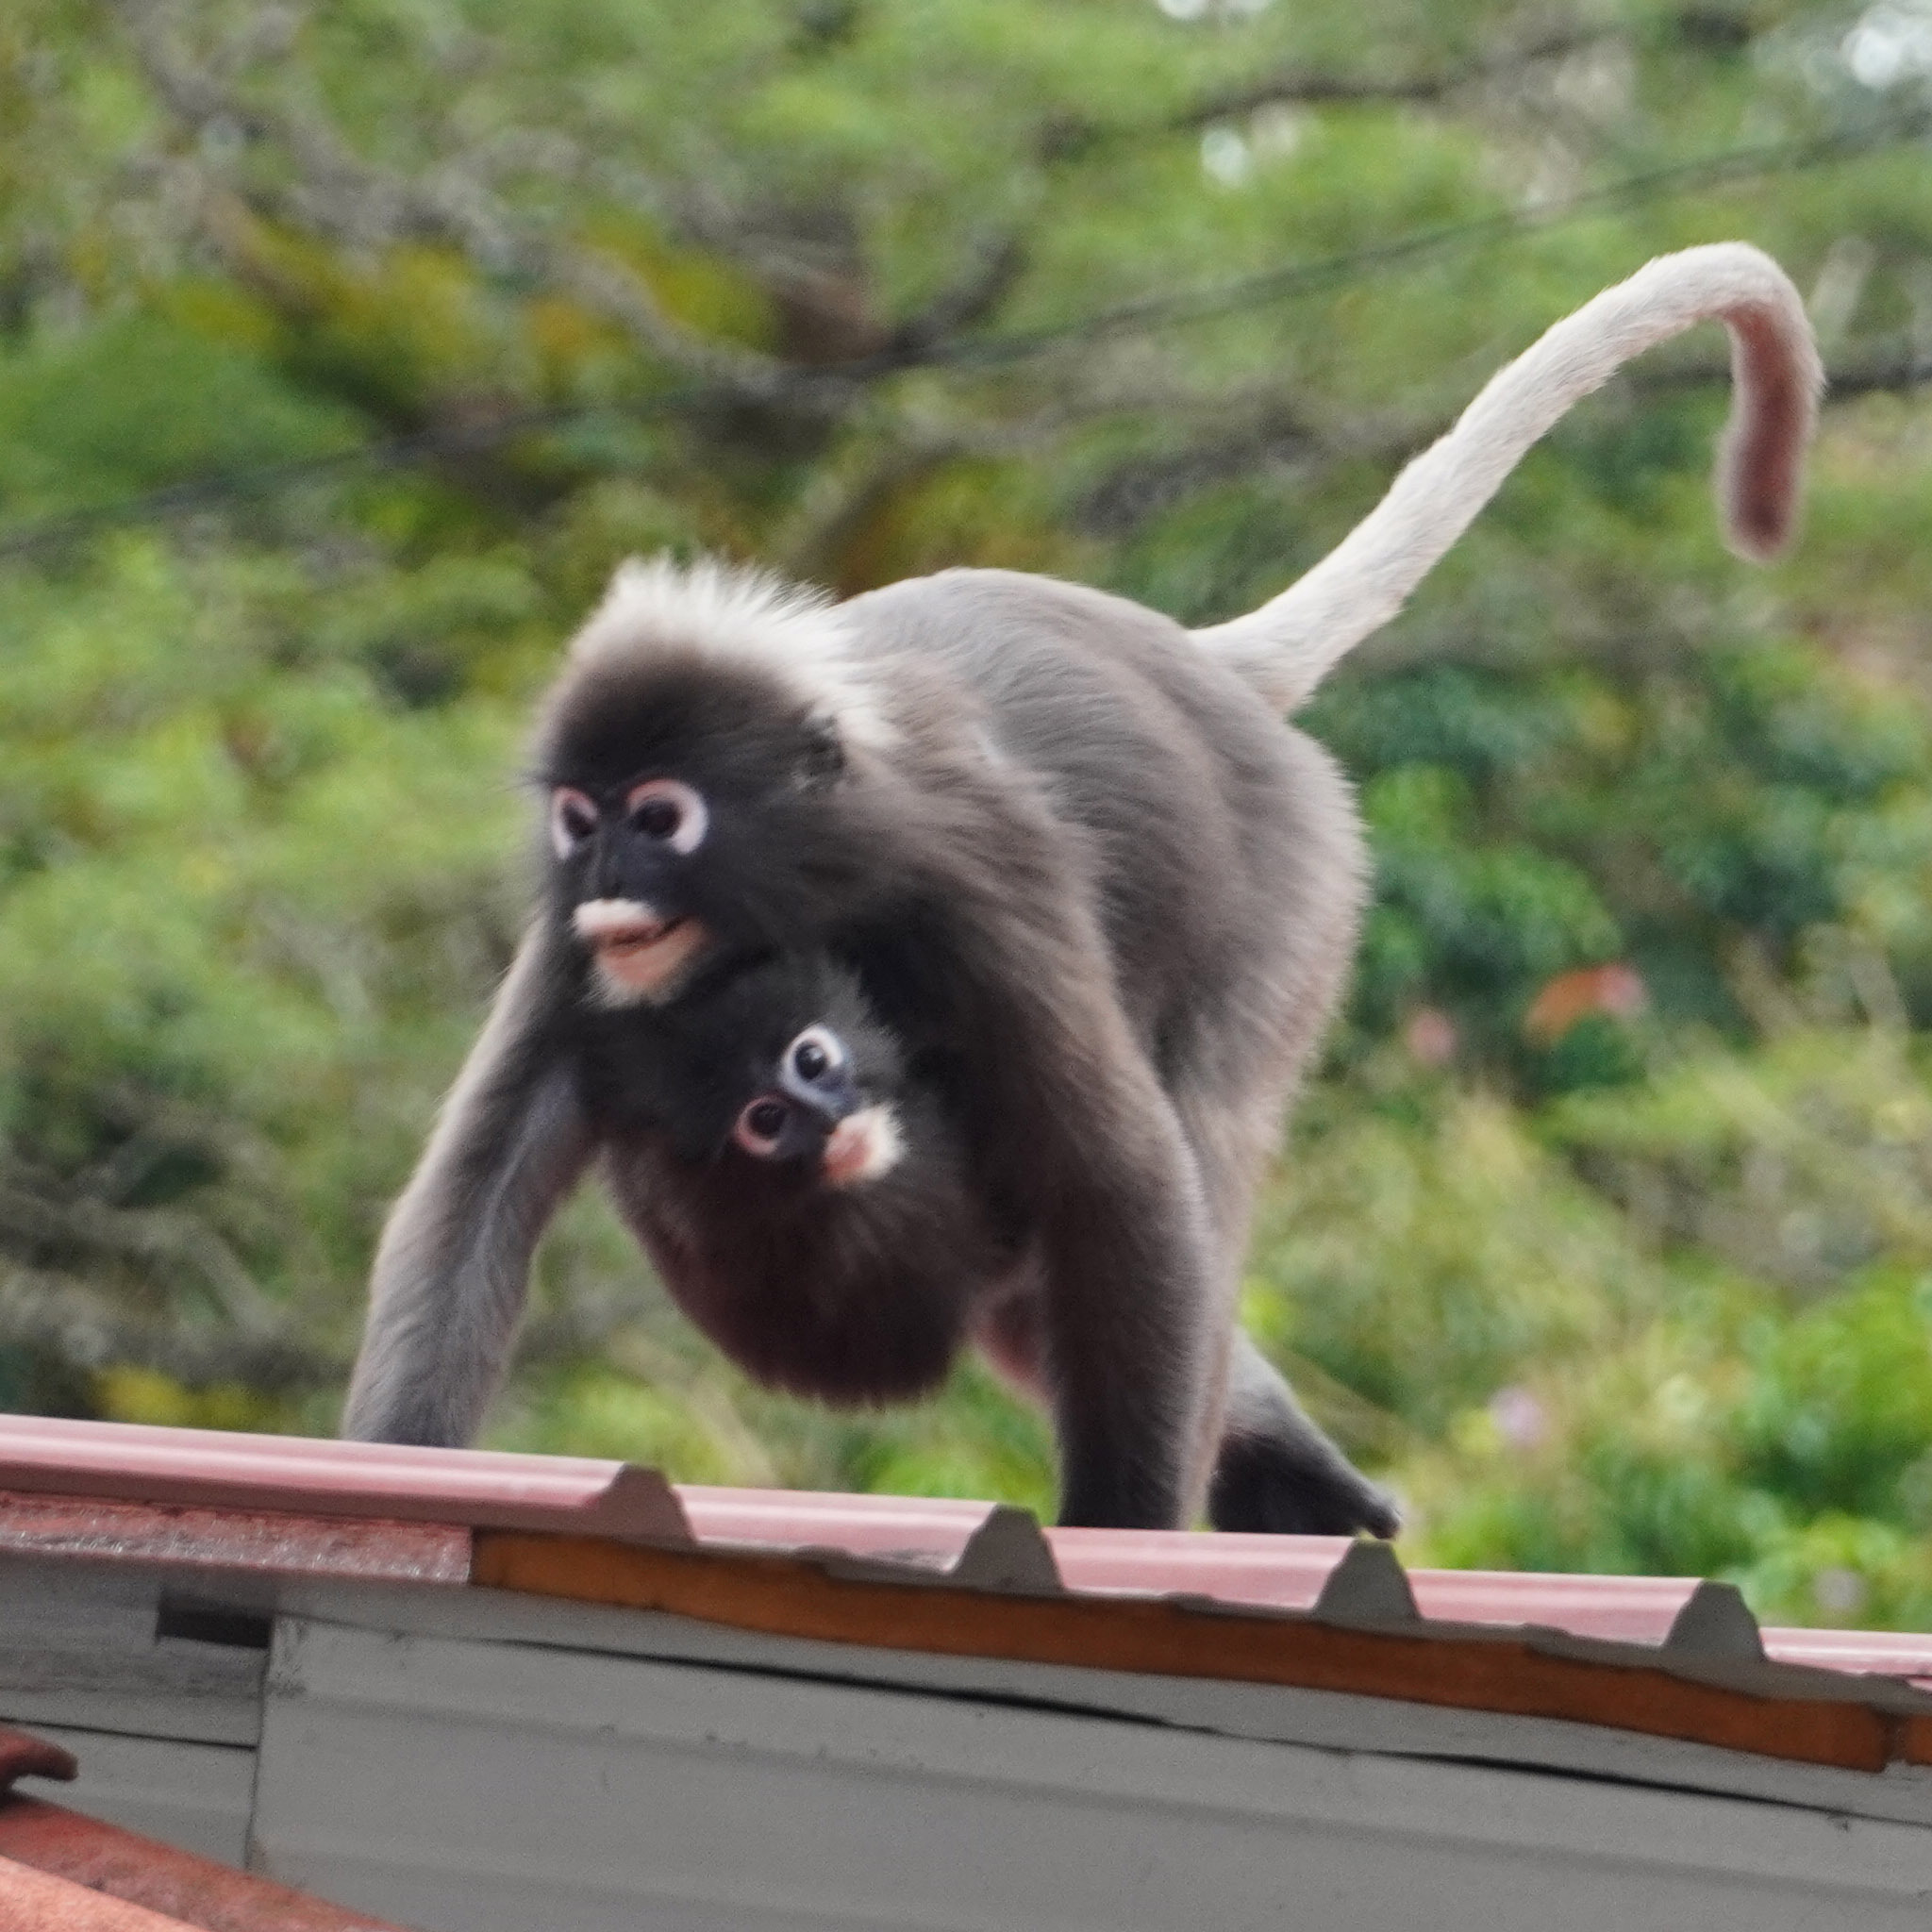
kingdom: Animalia
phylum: Chordata
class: Mammalia
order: Primates
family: Cercopithecidae
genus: Trachypithecus
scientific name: Trachypithecus obscurus
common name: Dusky leaf-monkey
